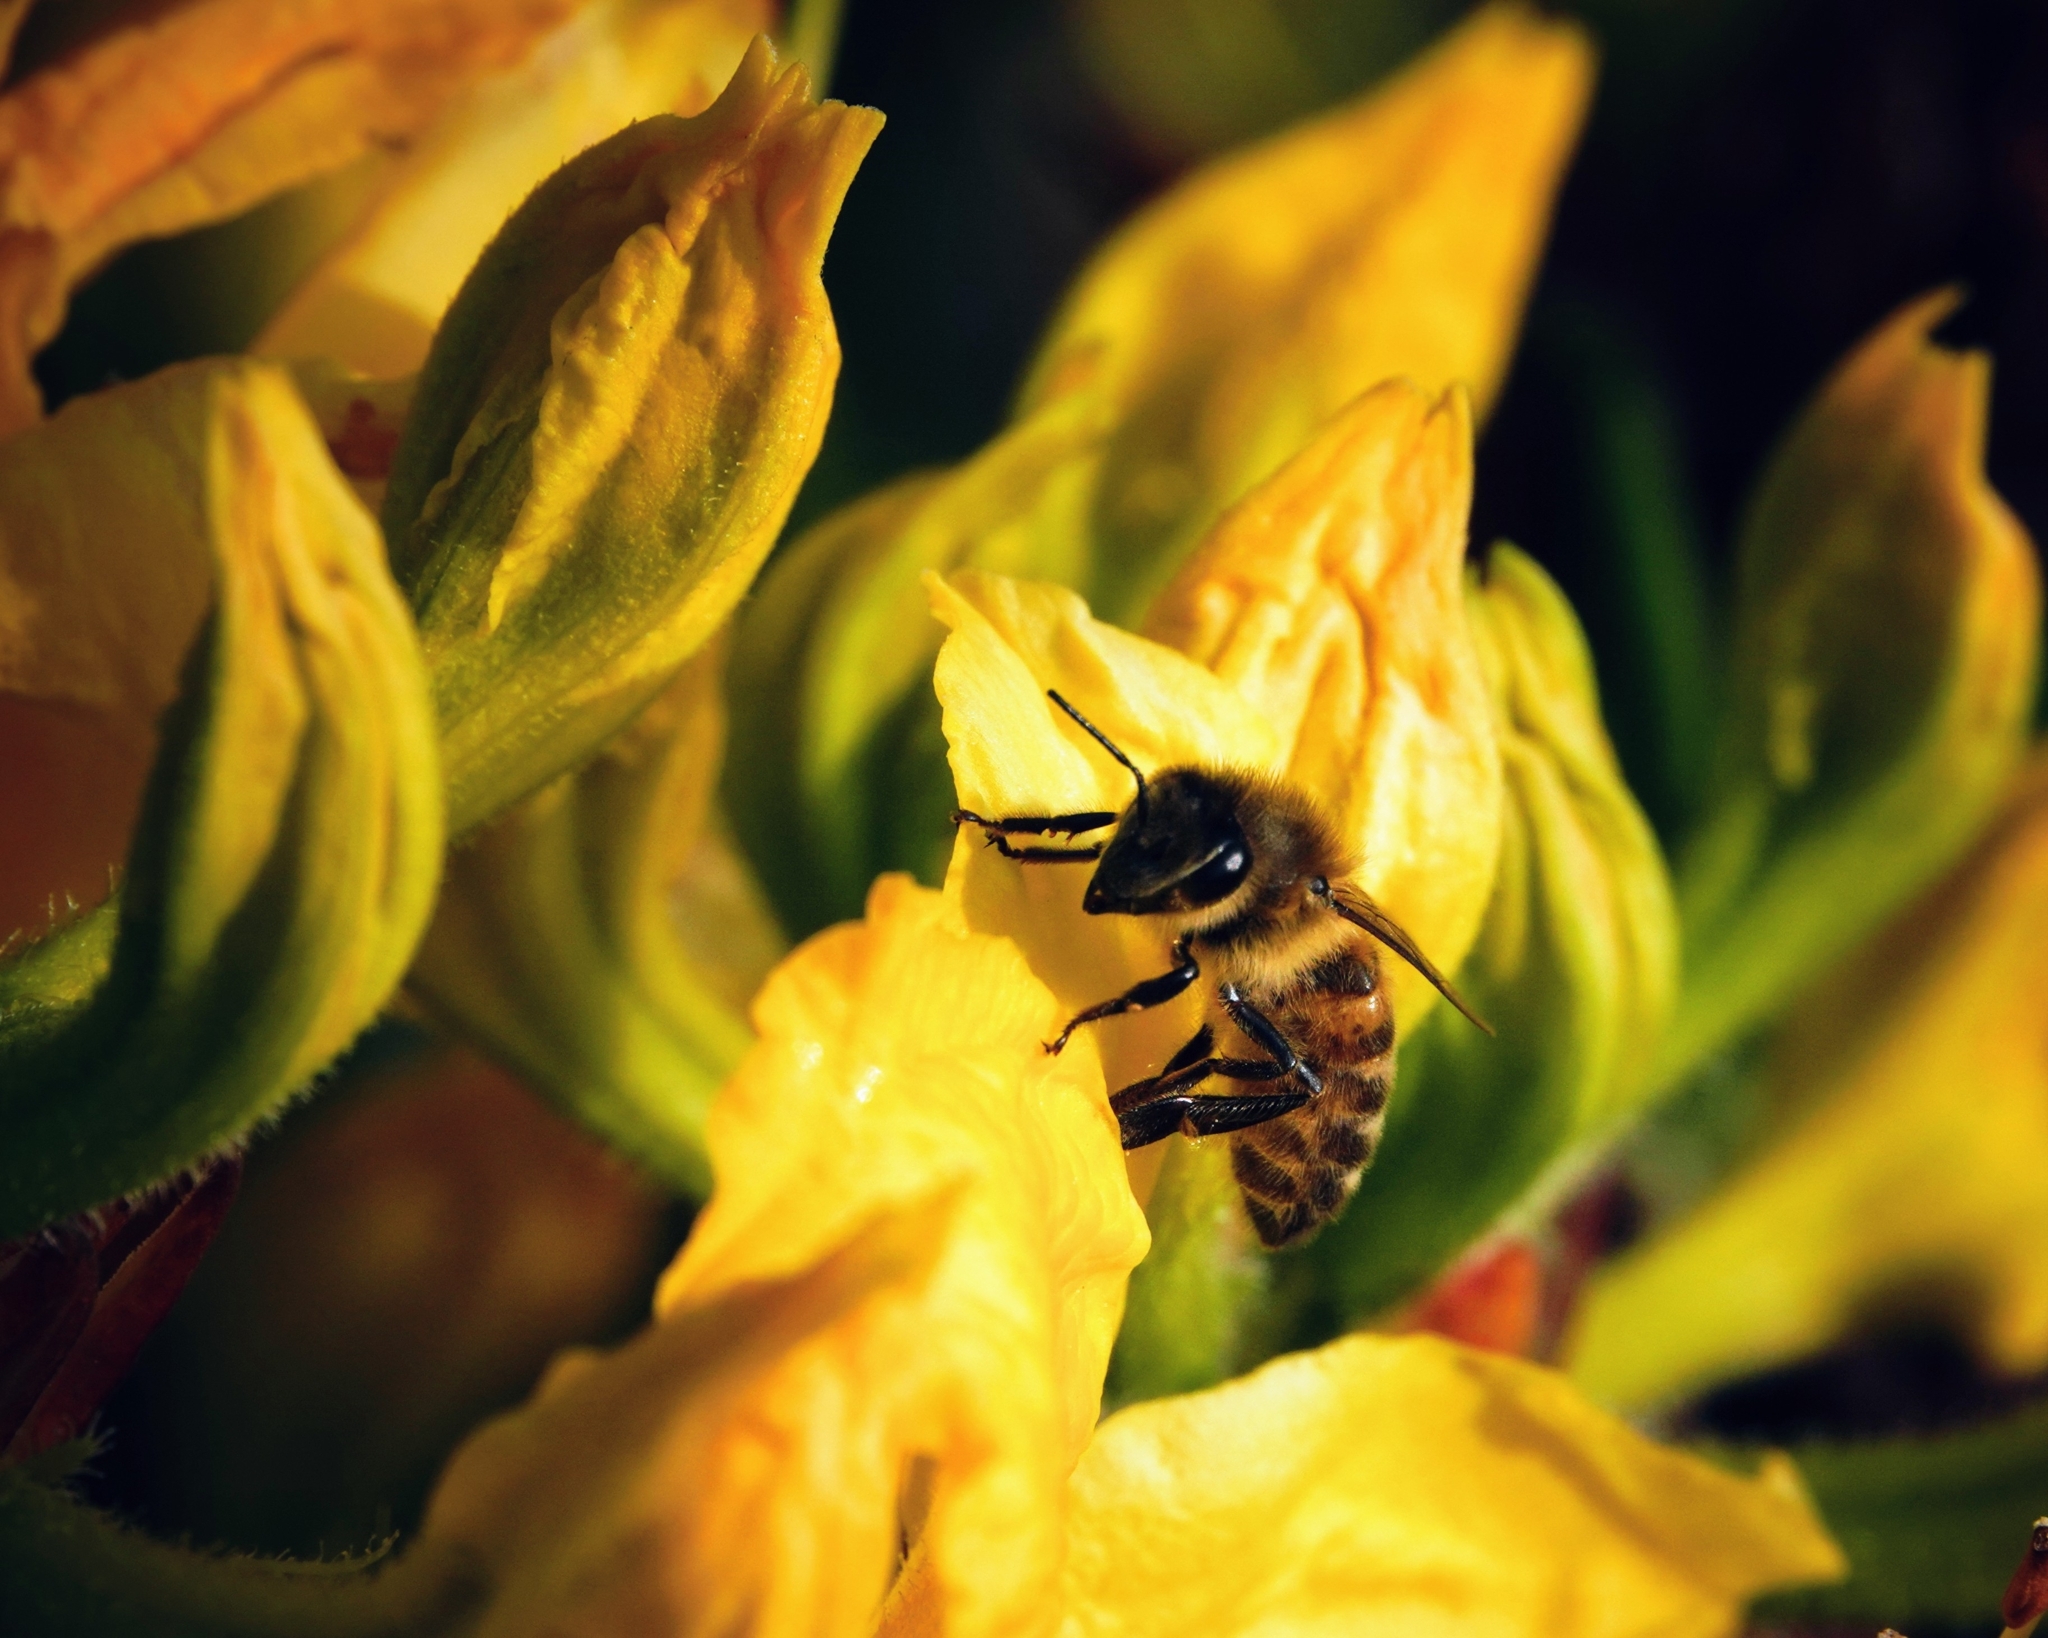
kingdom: Animalia
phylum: Arthropoda
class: Insecta
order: Hymenoptera
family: Apidae
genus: Apis
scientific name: Apis mellifera
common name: Honey bee
